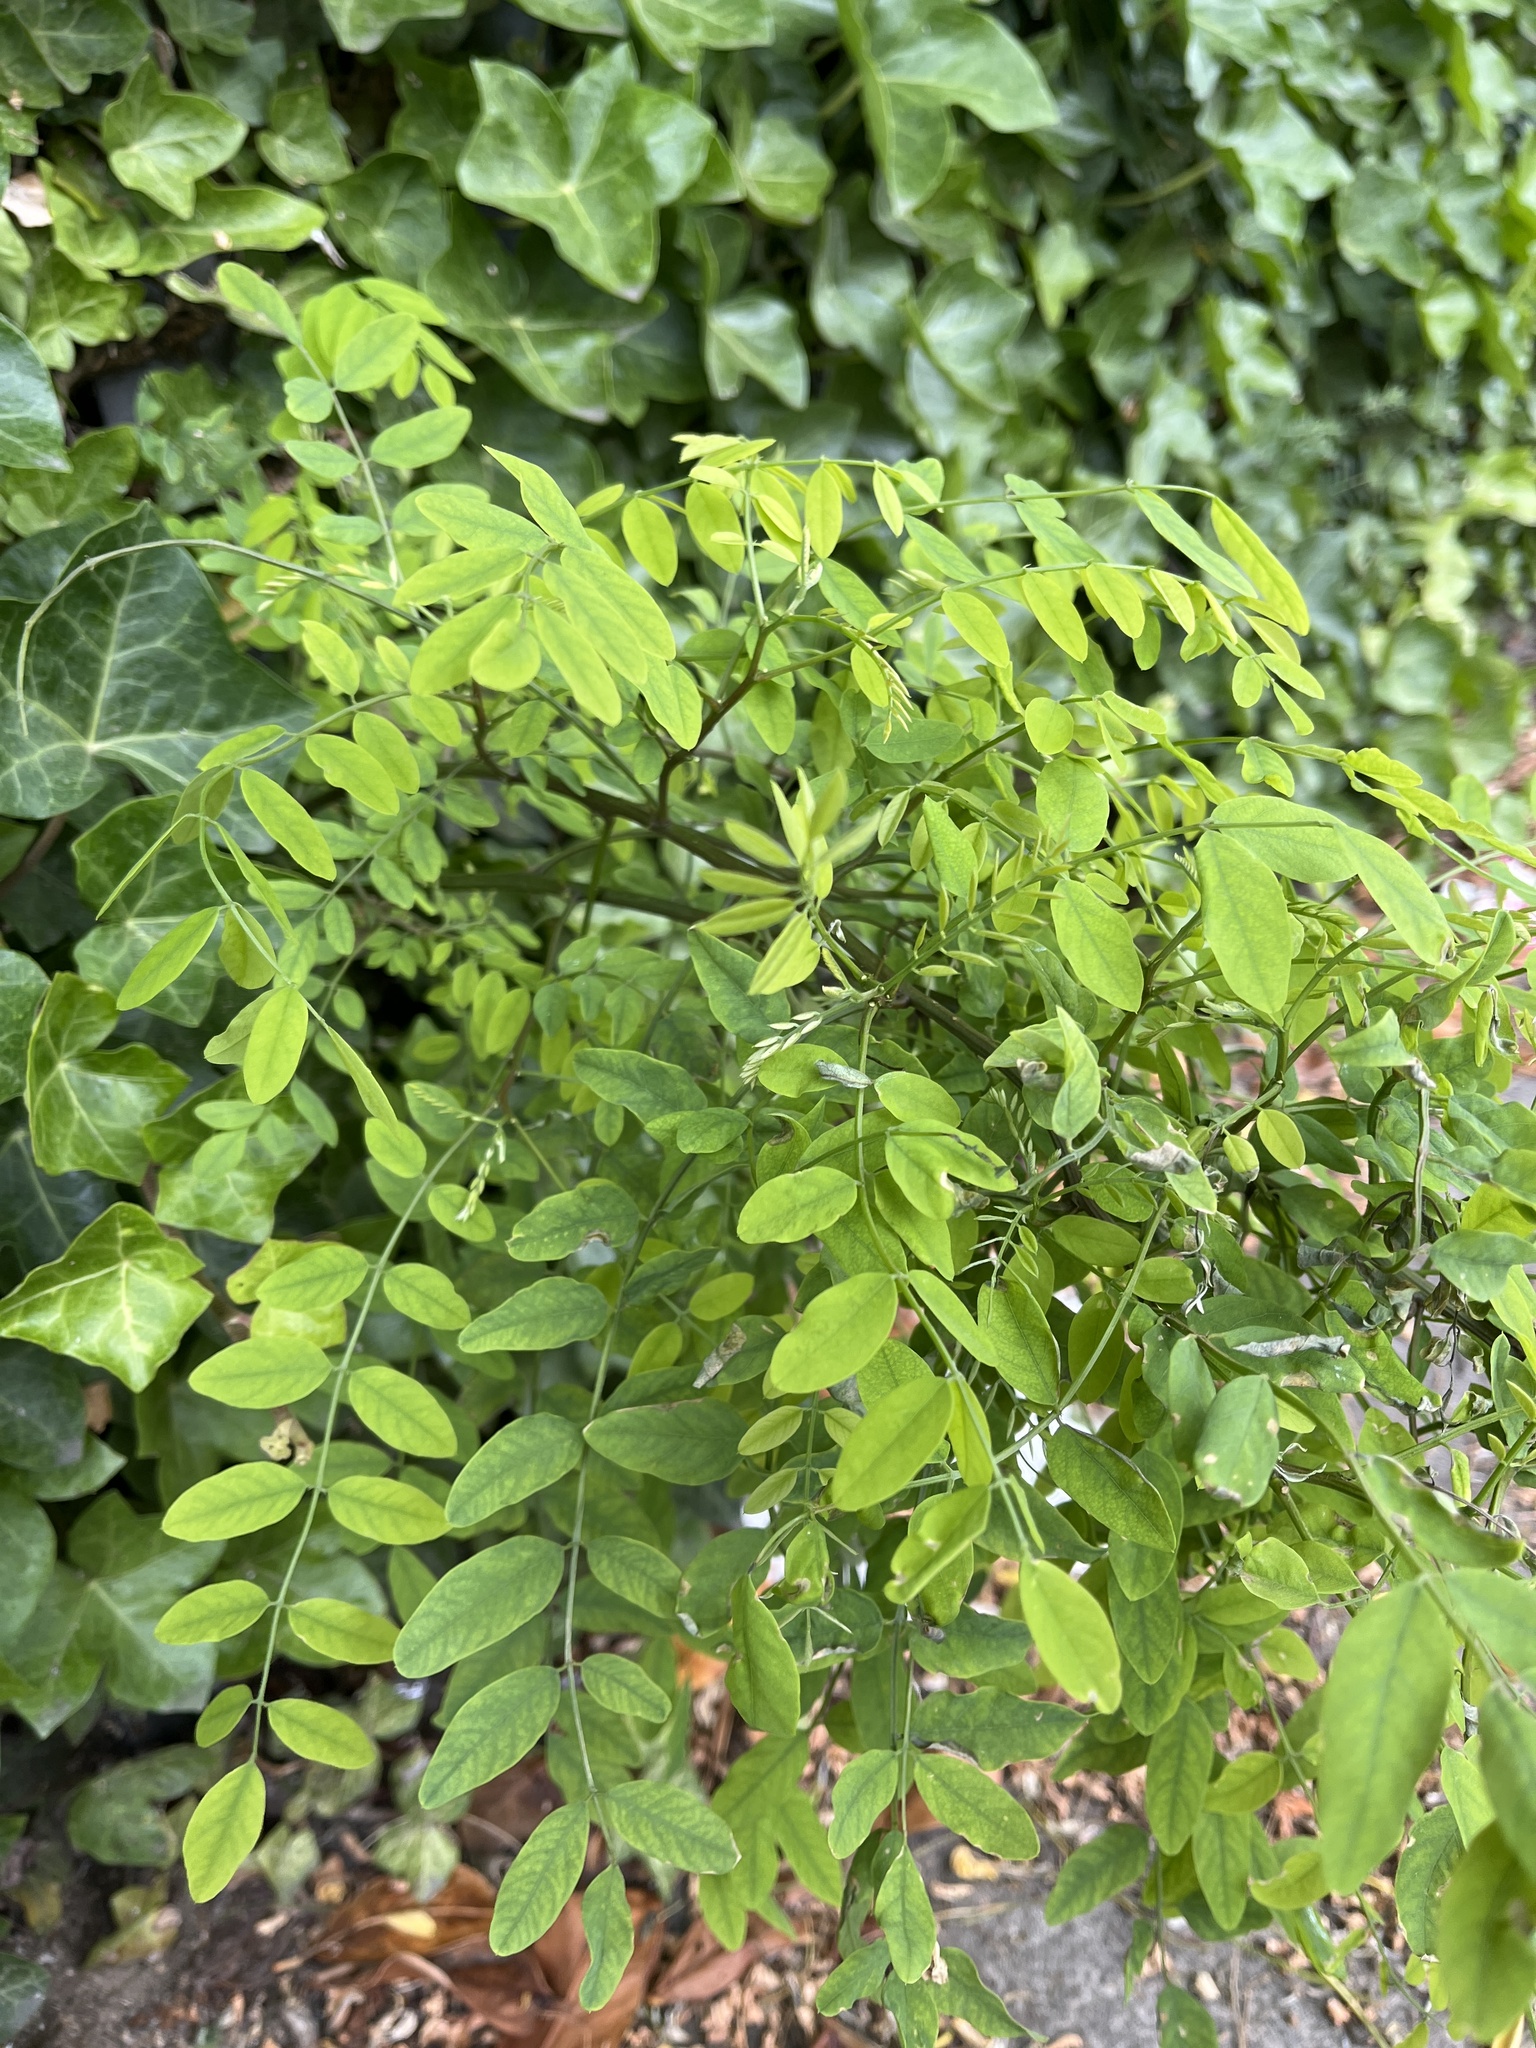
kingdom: Plantae
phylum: Tracheophyta
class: Magnoliopsida
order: Fabales
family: Fabaceae
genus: Robinia
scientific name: Robinia pseudoacacia
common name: Black locust
